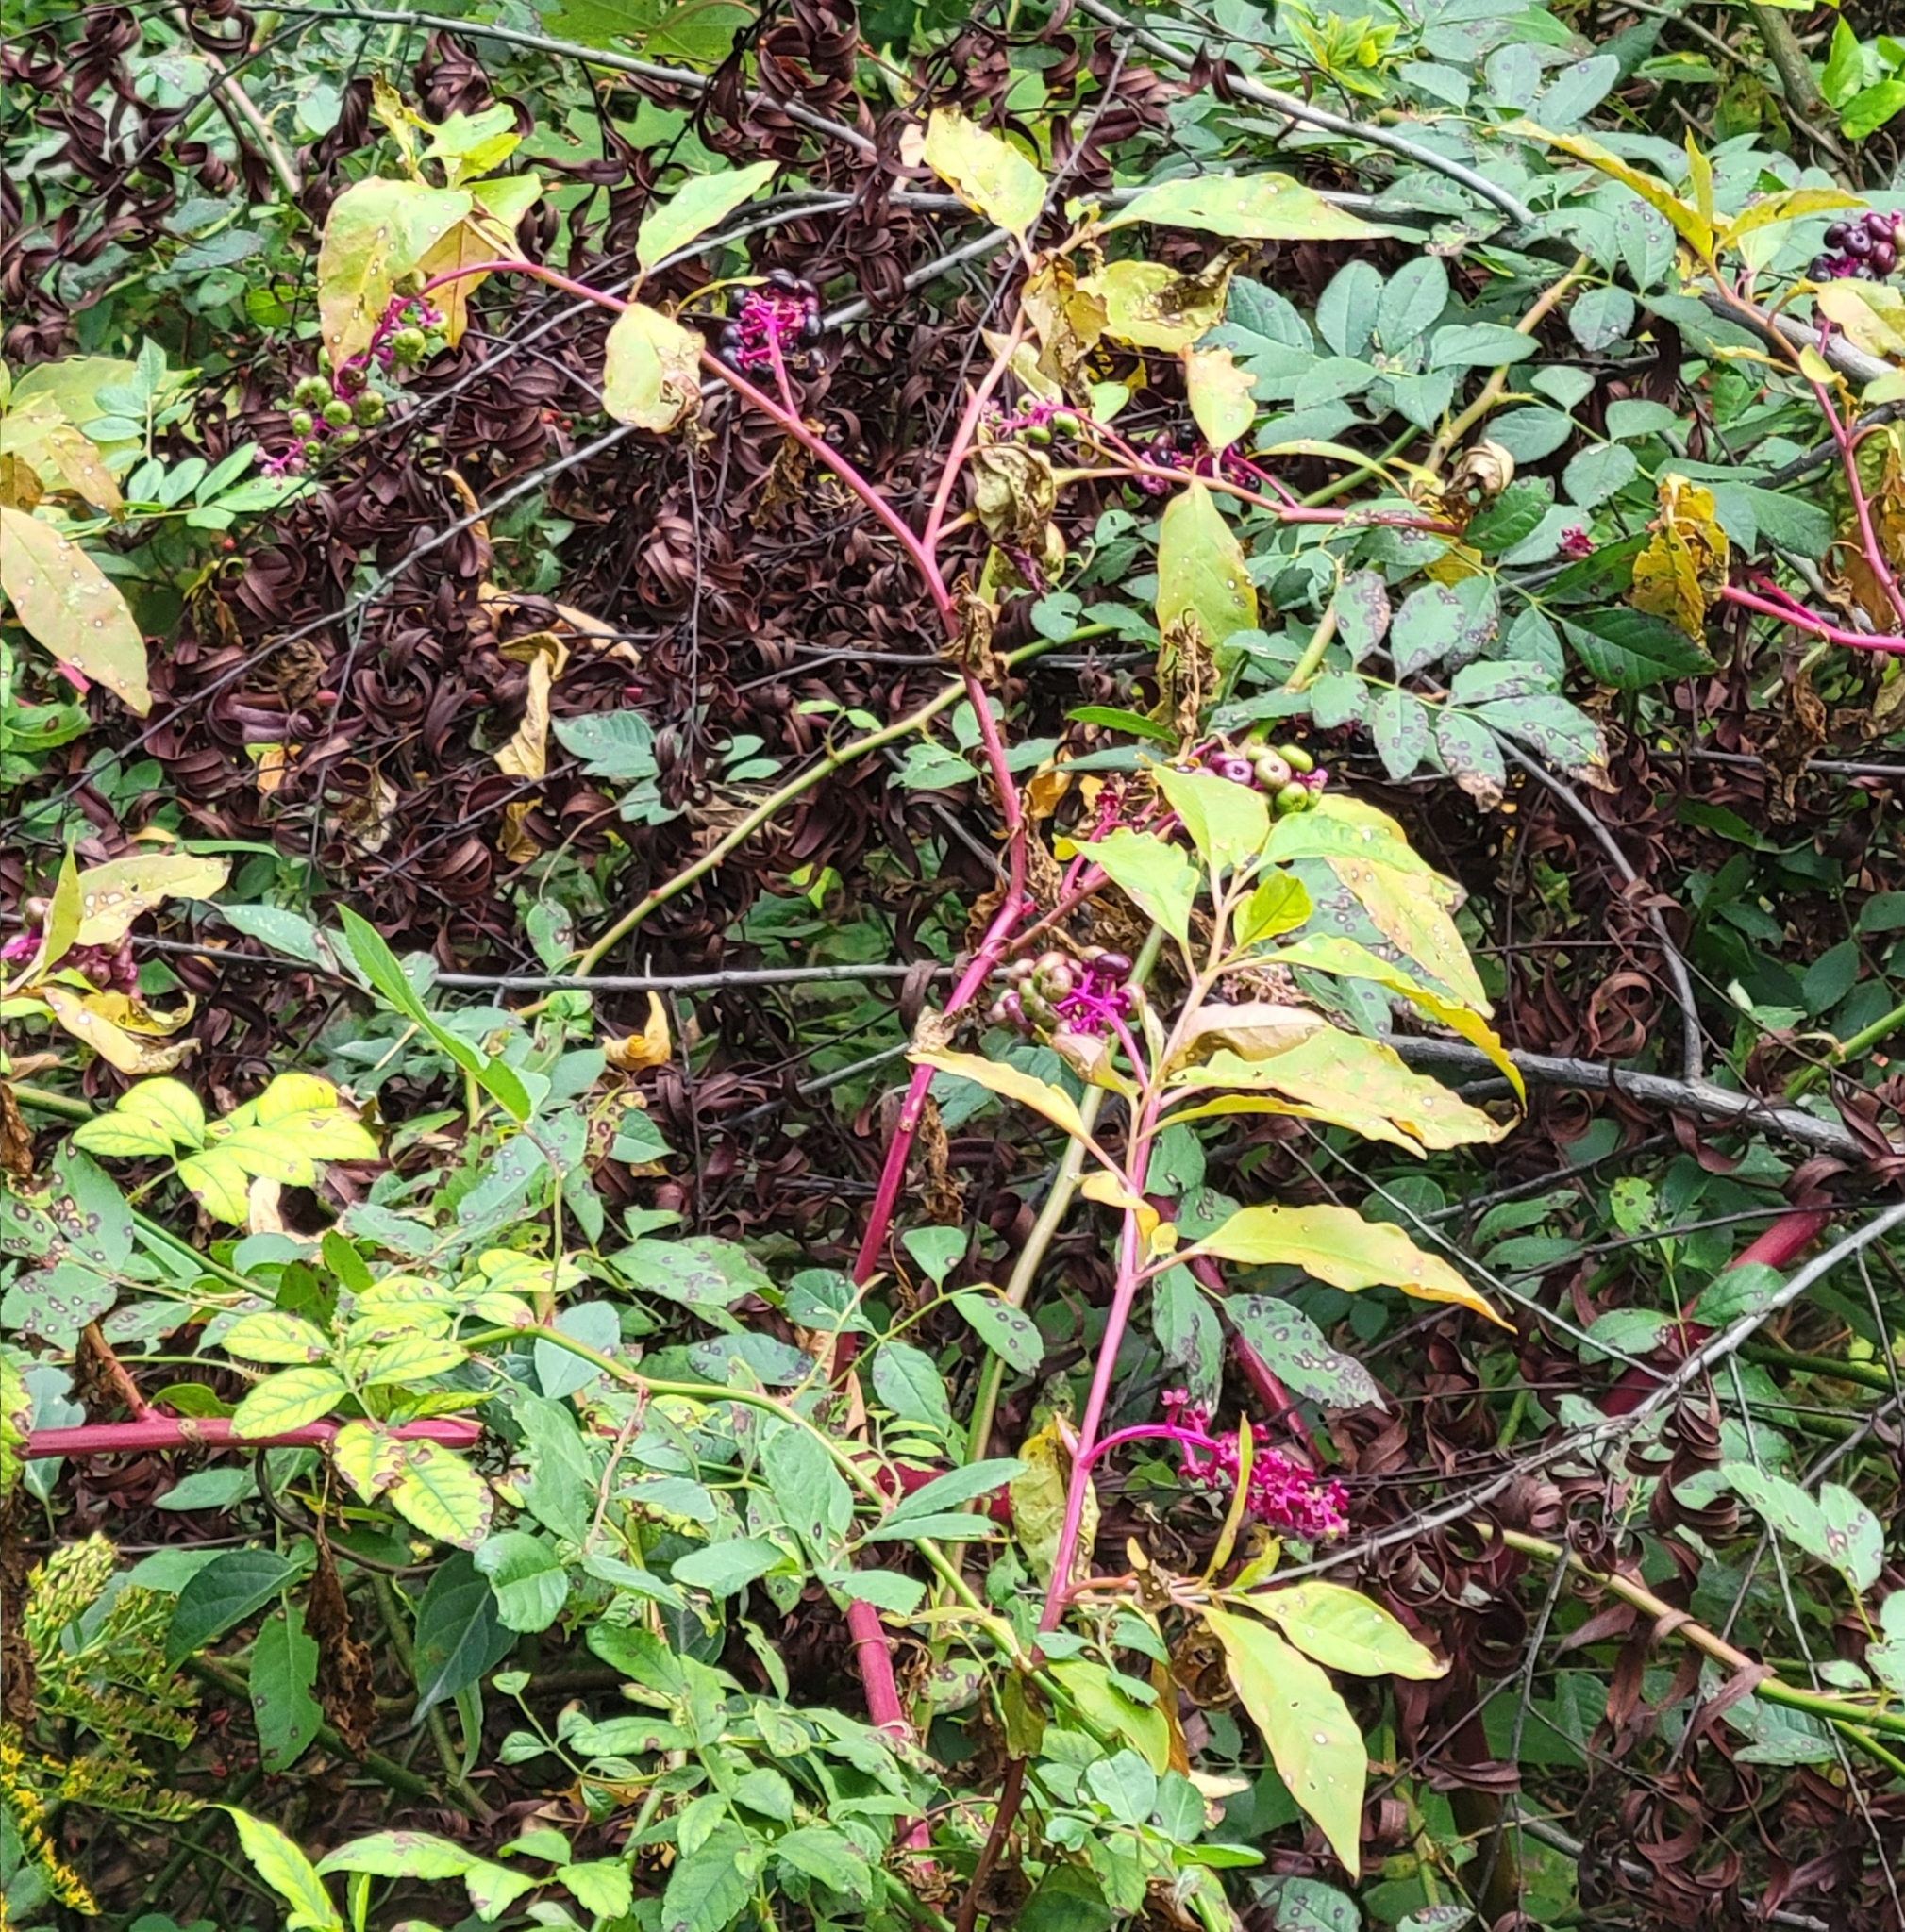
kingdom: Plantae
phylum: Tracheophyta
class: Magnoliopsida
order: Caryophyllales
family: Phytolaccaceae
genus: Phytolacca
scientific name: Phytolacca americana
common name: American pokeweed
